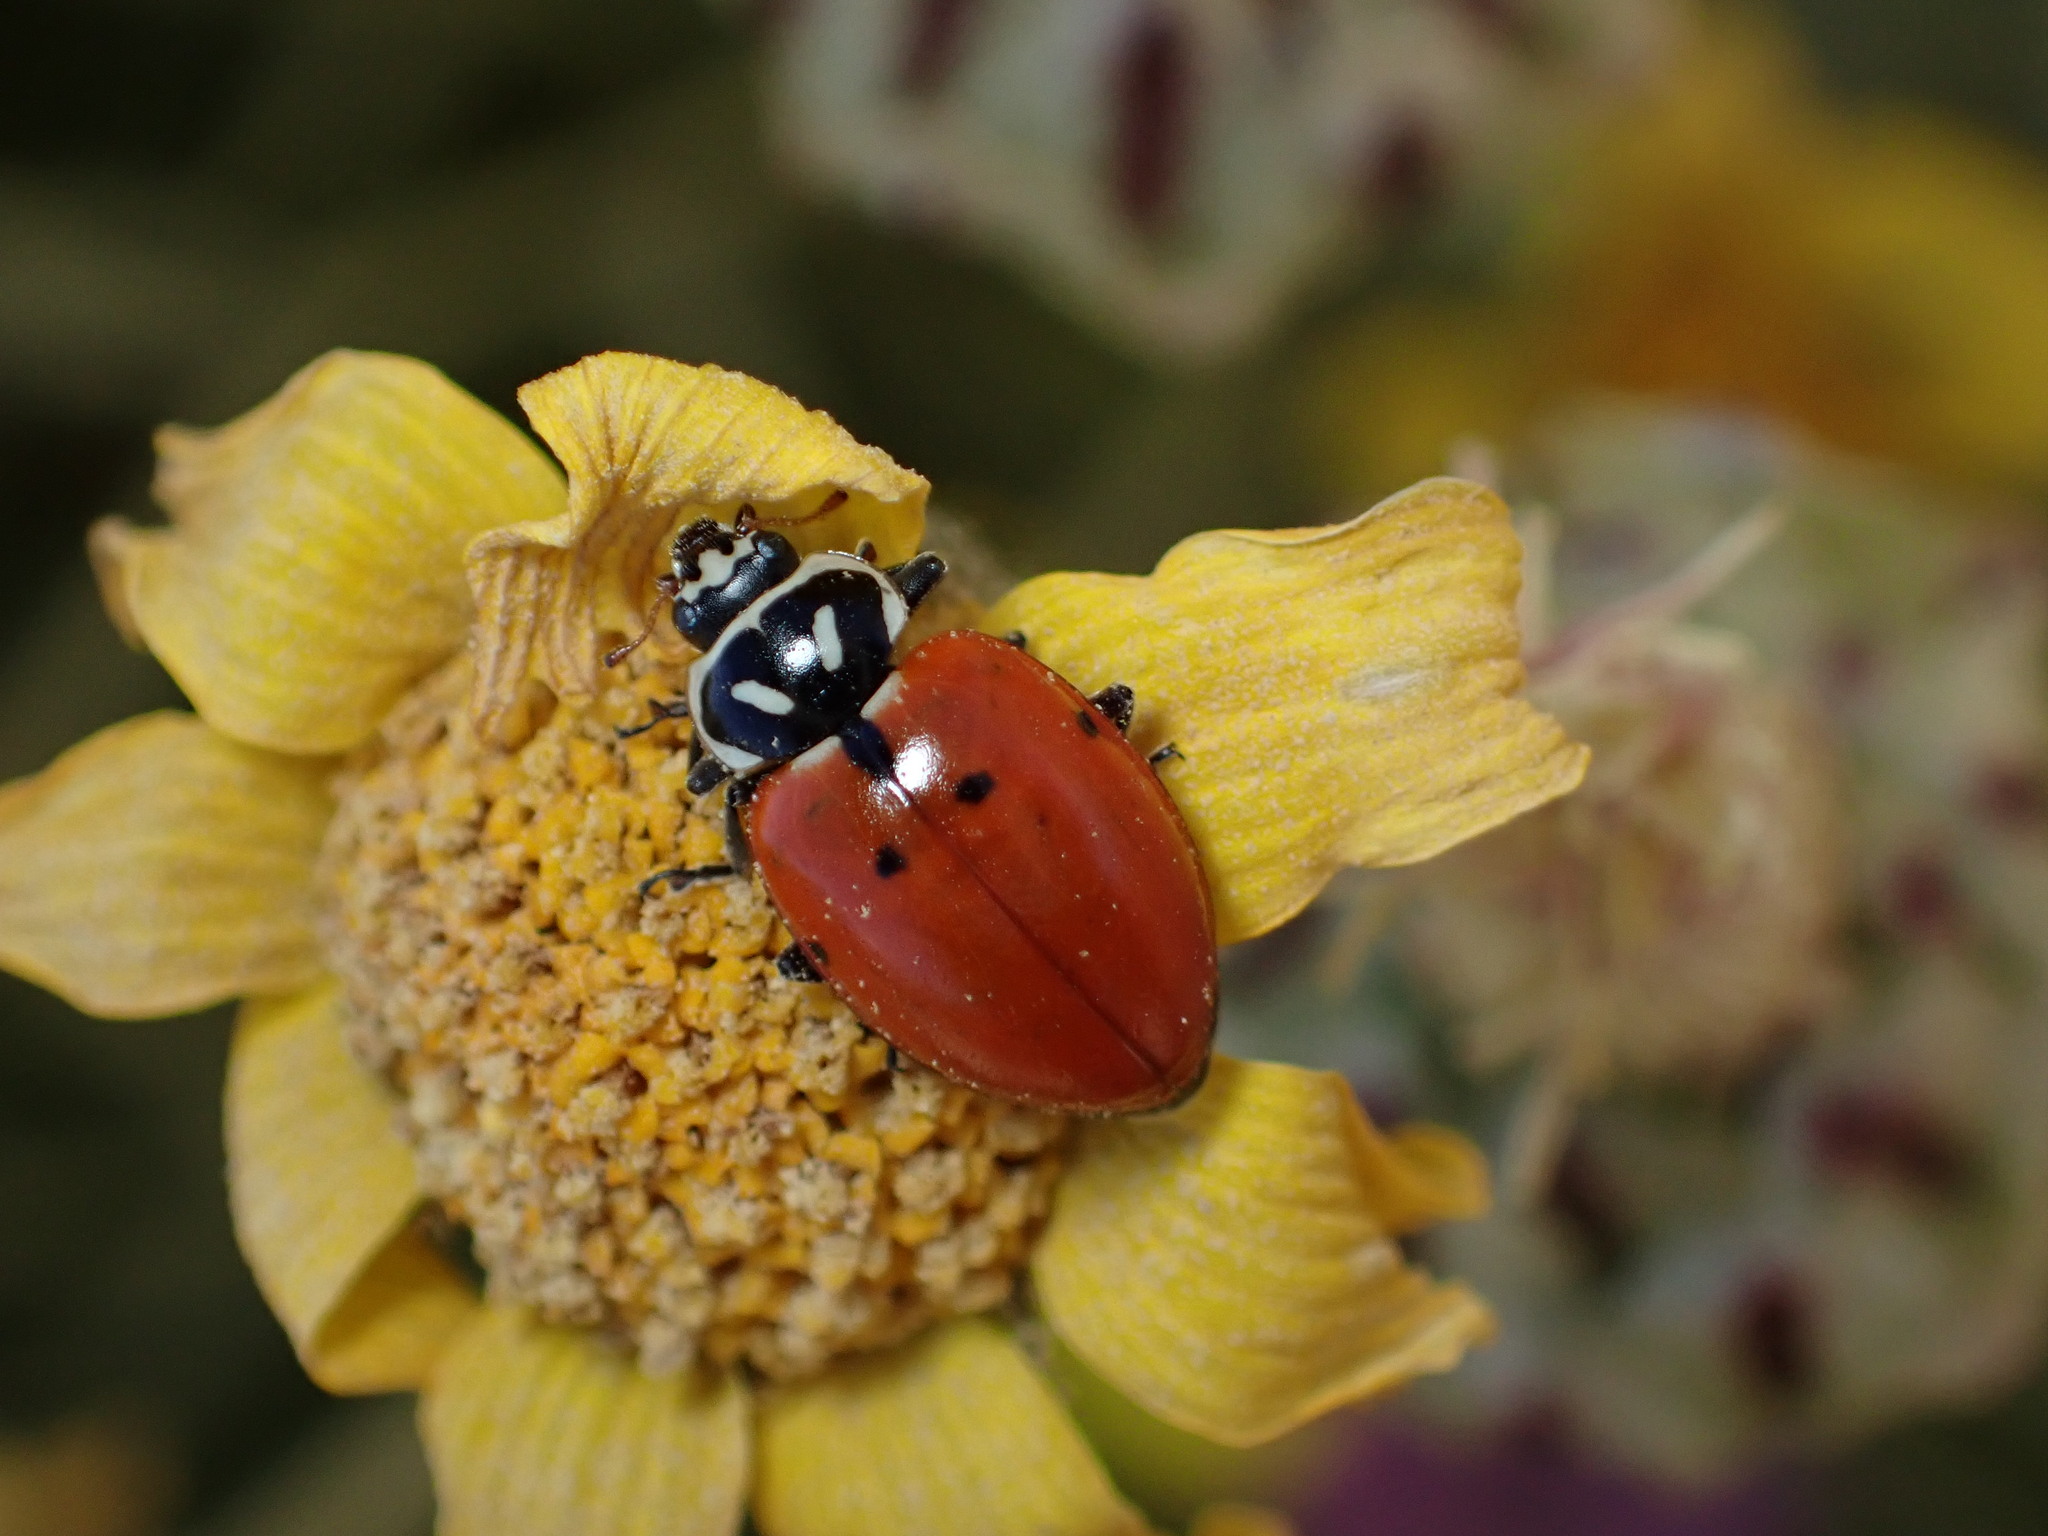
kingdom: Animalia
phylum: Arthropoda
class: Insecta
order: Coleoptera
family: Coccinellidae
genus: Hippodamia
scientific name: Hippodamia convergens
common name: Convergent lady beetle
